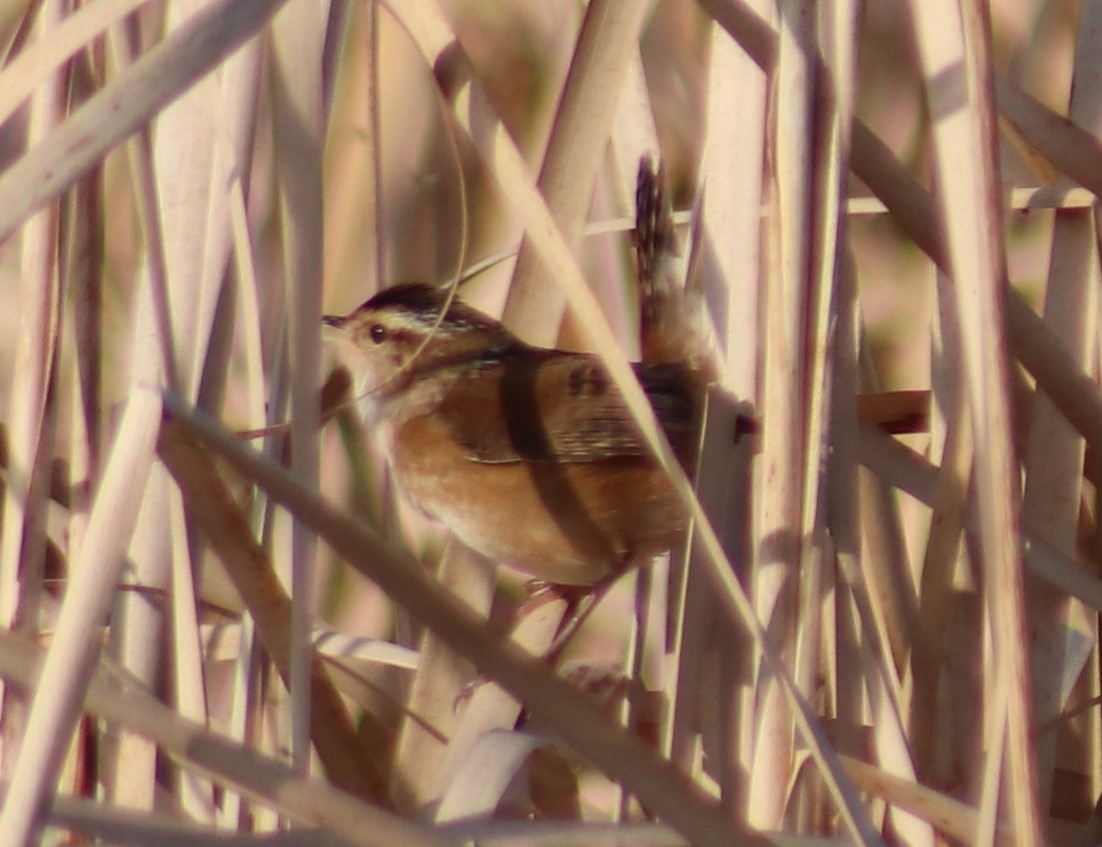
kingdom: Animalia
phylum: Chordata
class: Aves
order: Passeriformes
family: Troglodytidae
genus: Cistothorus
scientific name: Cistothorus palustris
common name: Marsh wren
